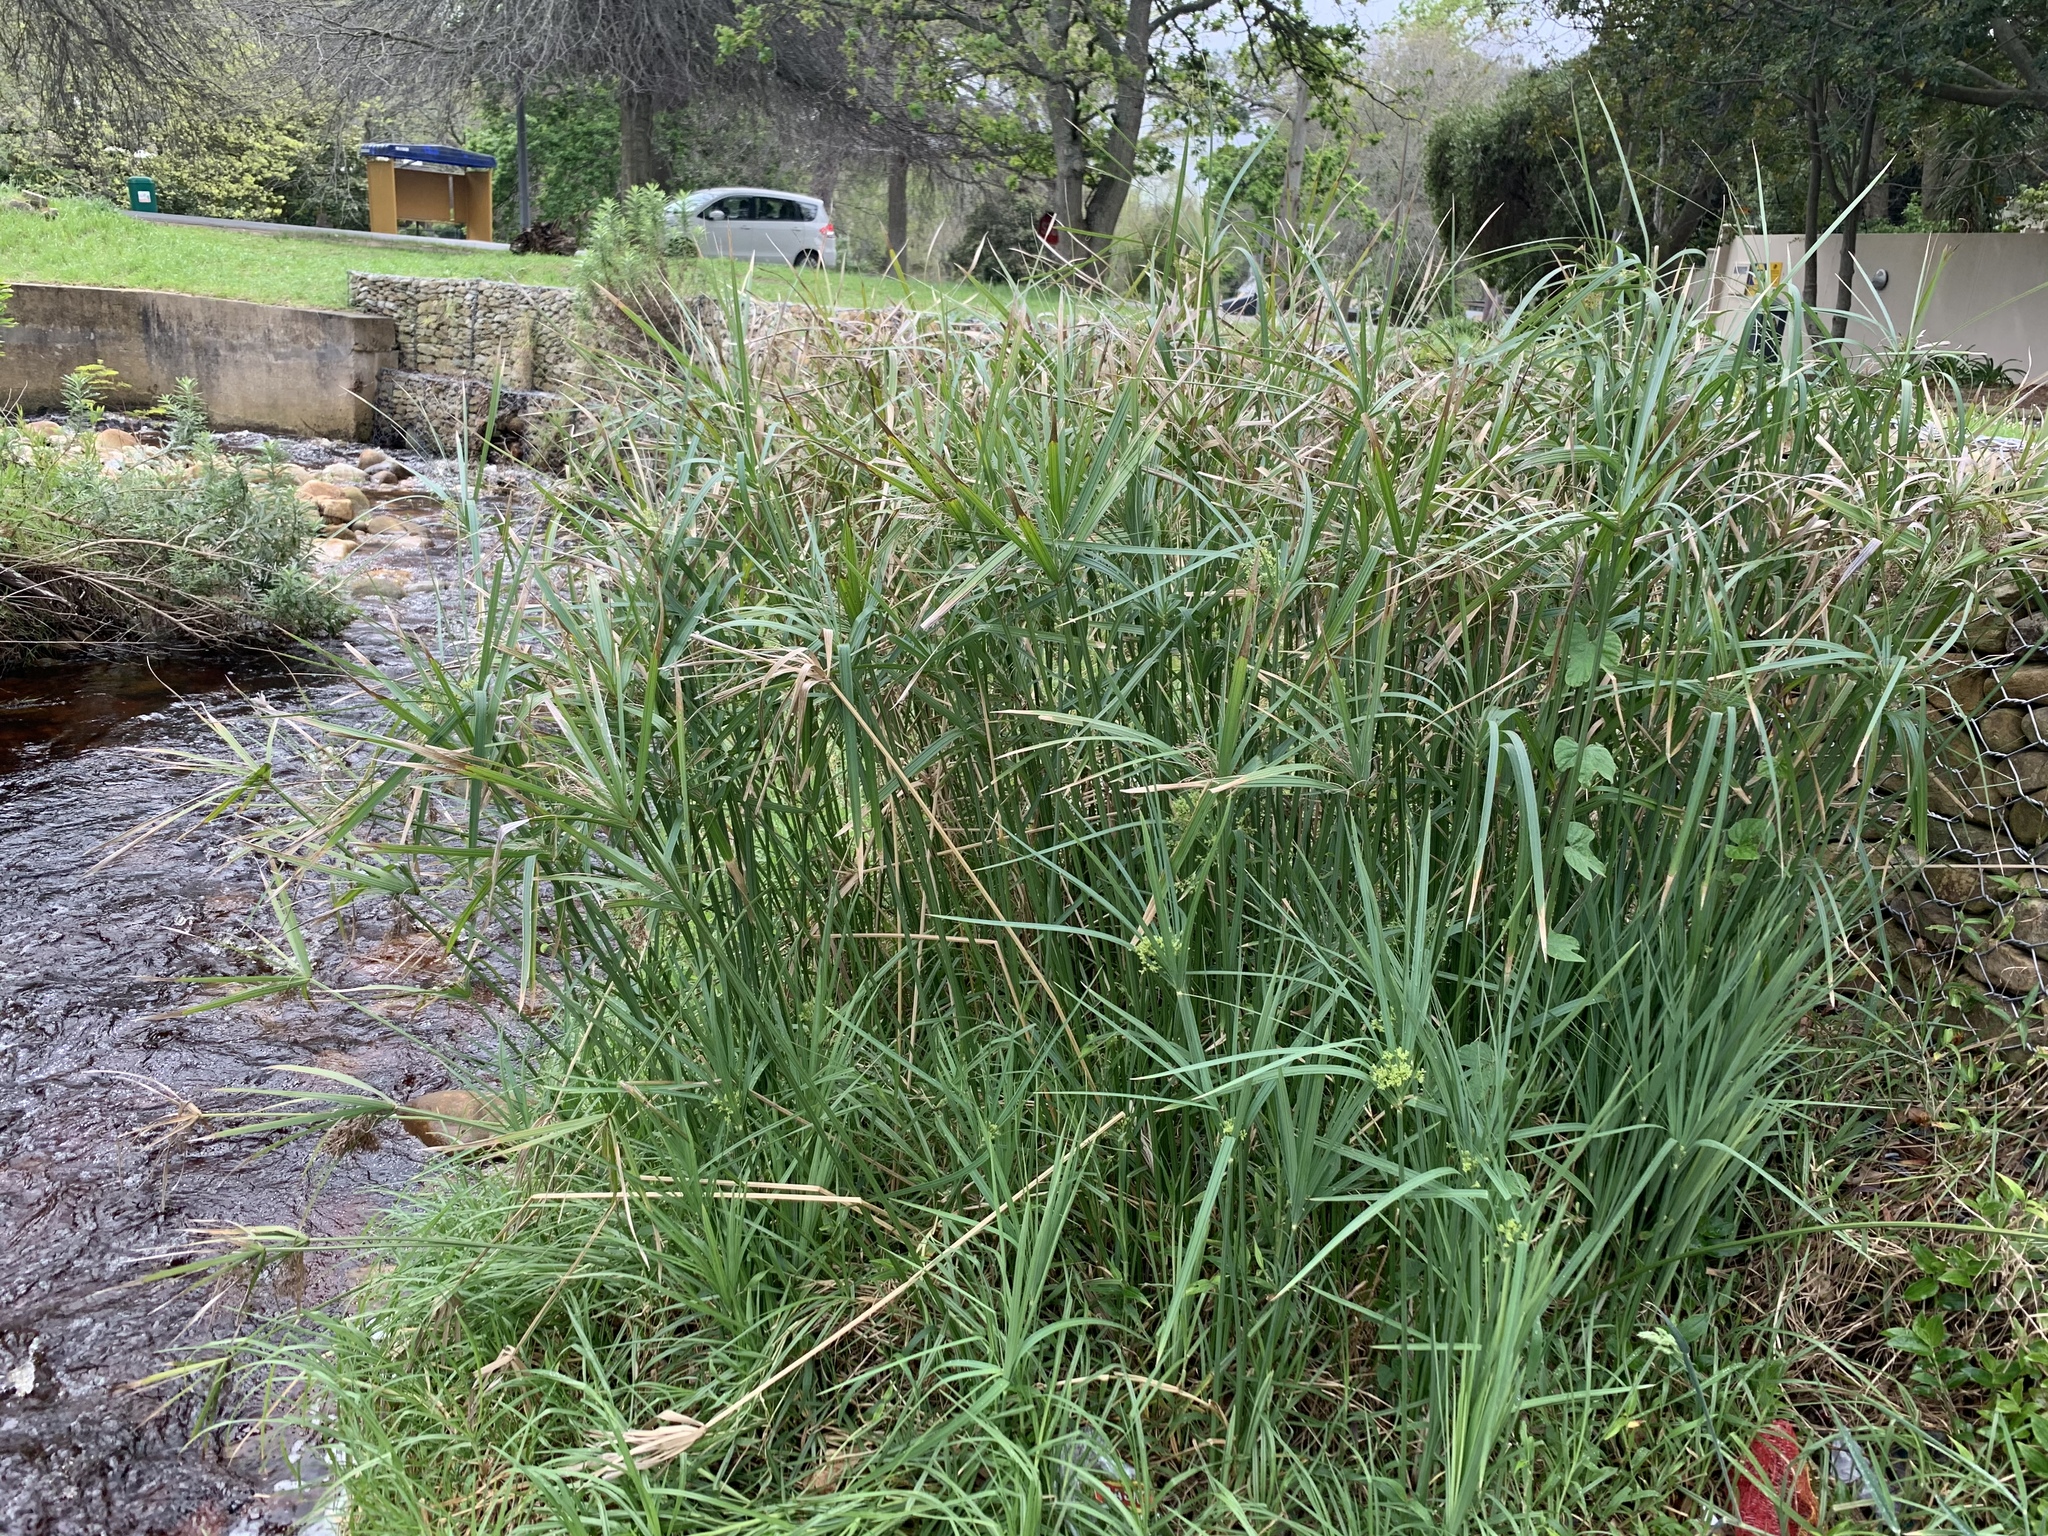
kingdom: Plantae
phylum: Tracheophyta
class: Liliopsida
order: Poales
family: Cyperaceae
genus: Cyperus
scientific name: Cyperus textilis
